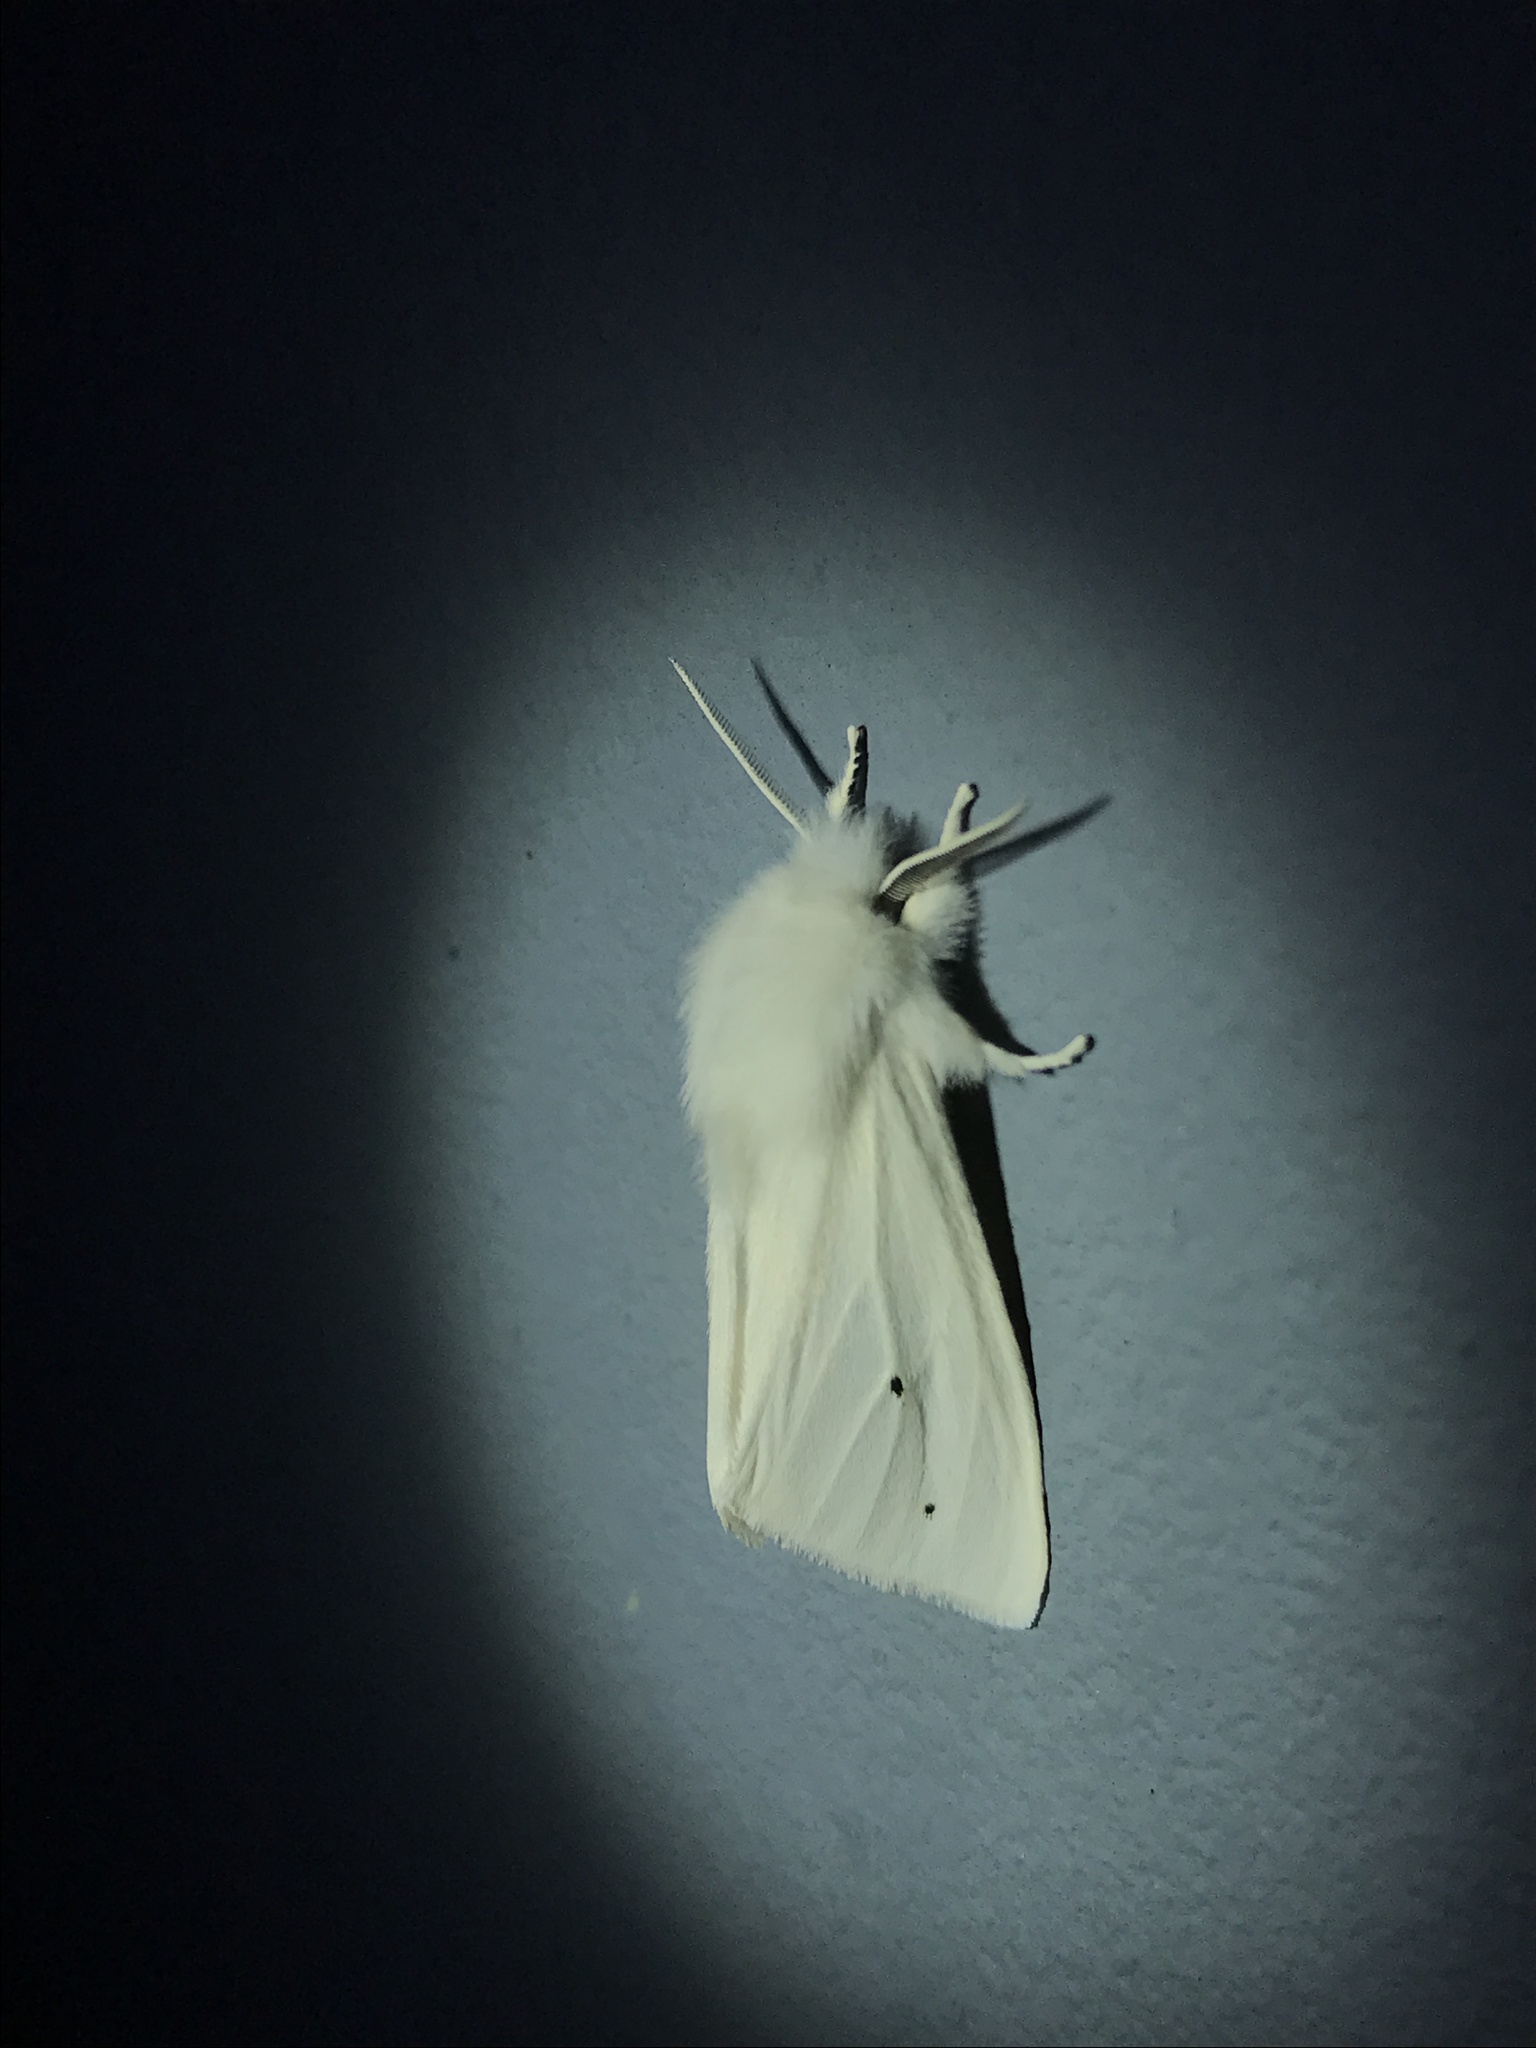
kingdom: Animalia
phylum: Arthropoda
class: Insecta
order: Lepidoptera
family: Erebidae
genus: Spilosoma
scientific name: Spilosoma virginica
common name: Virginia tiger moth
